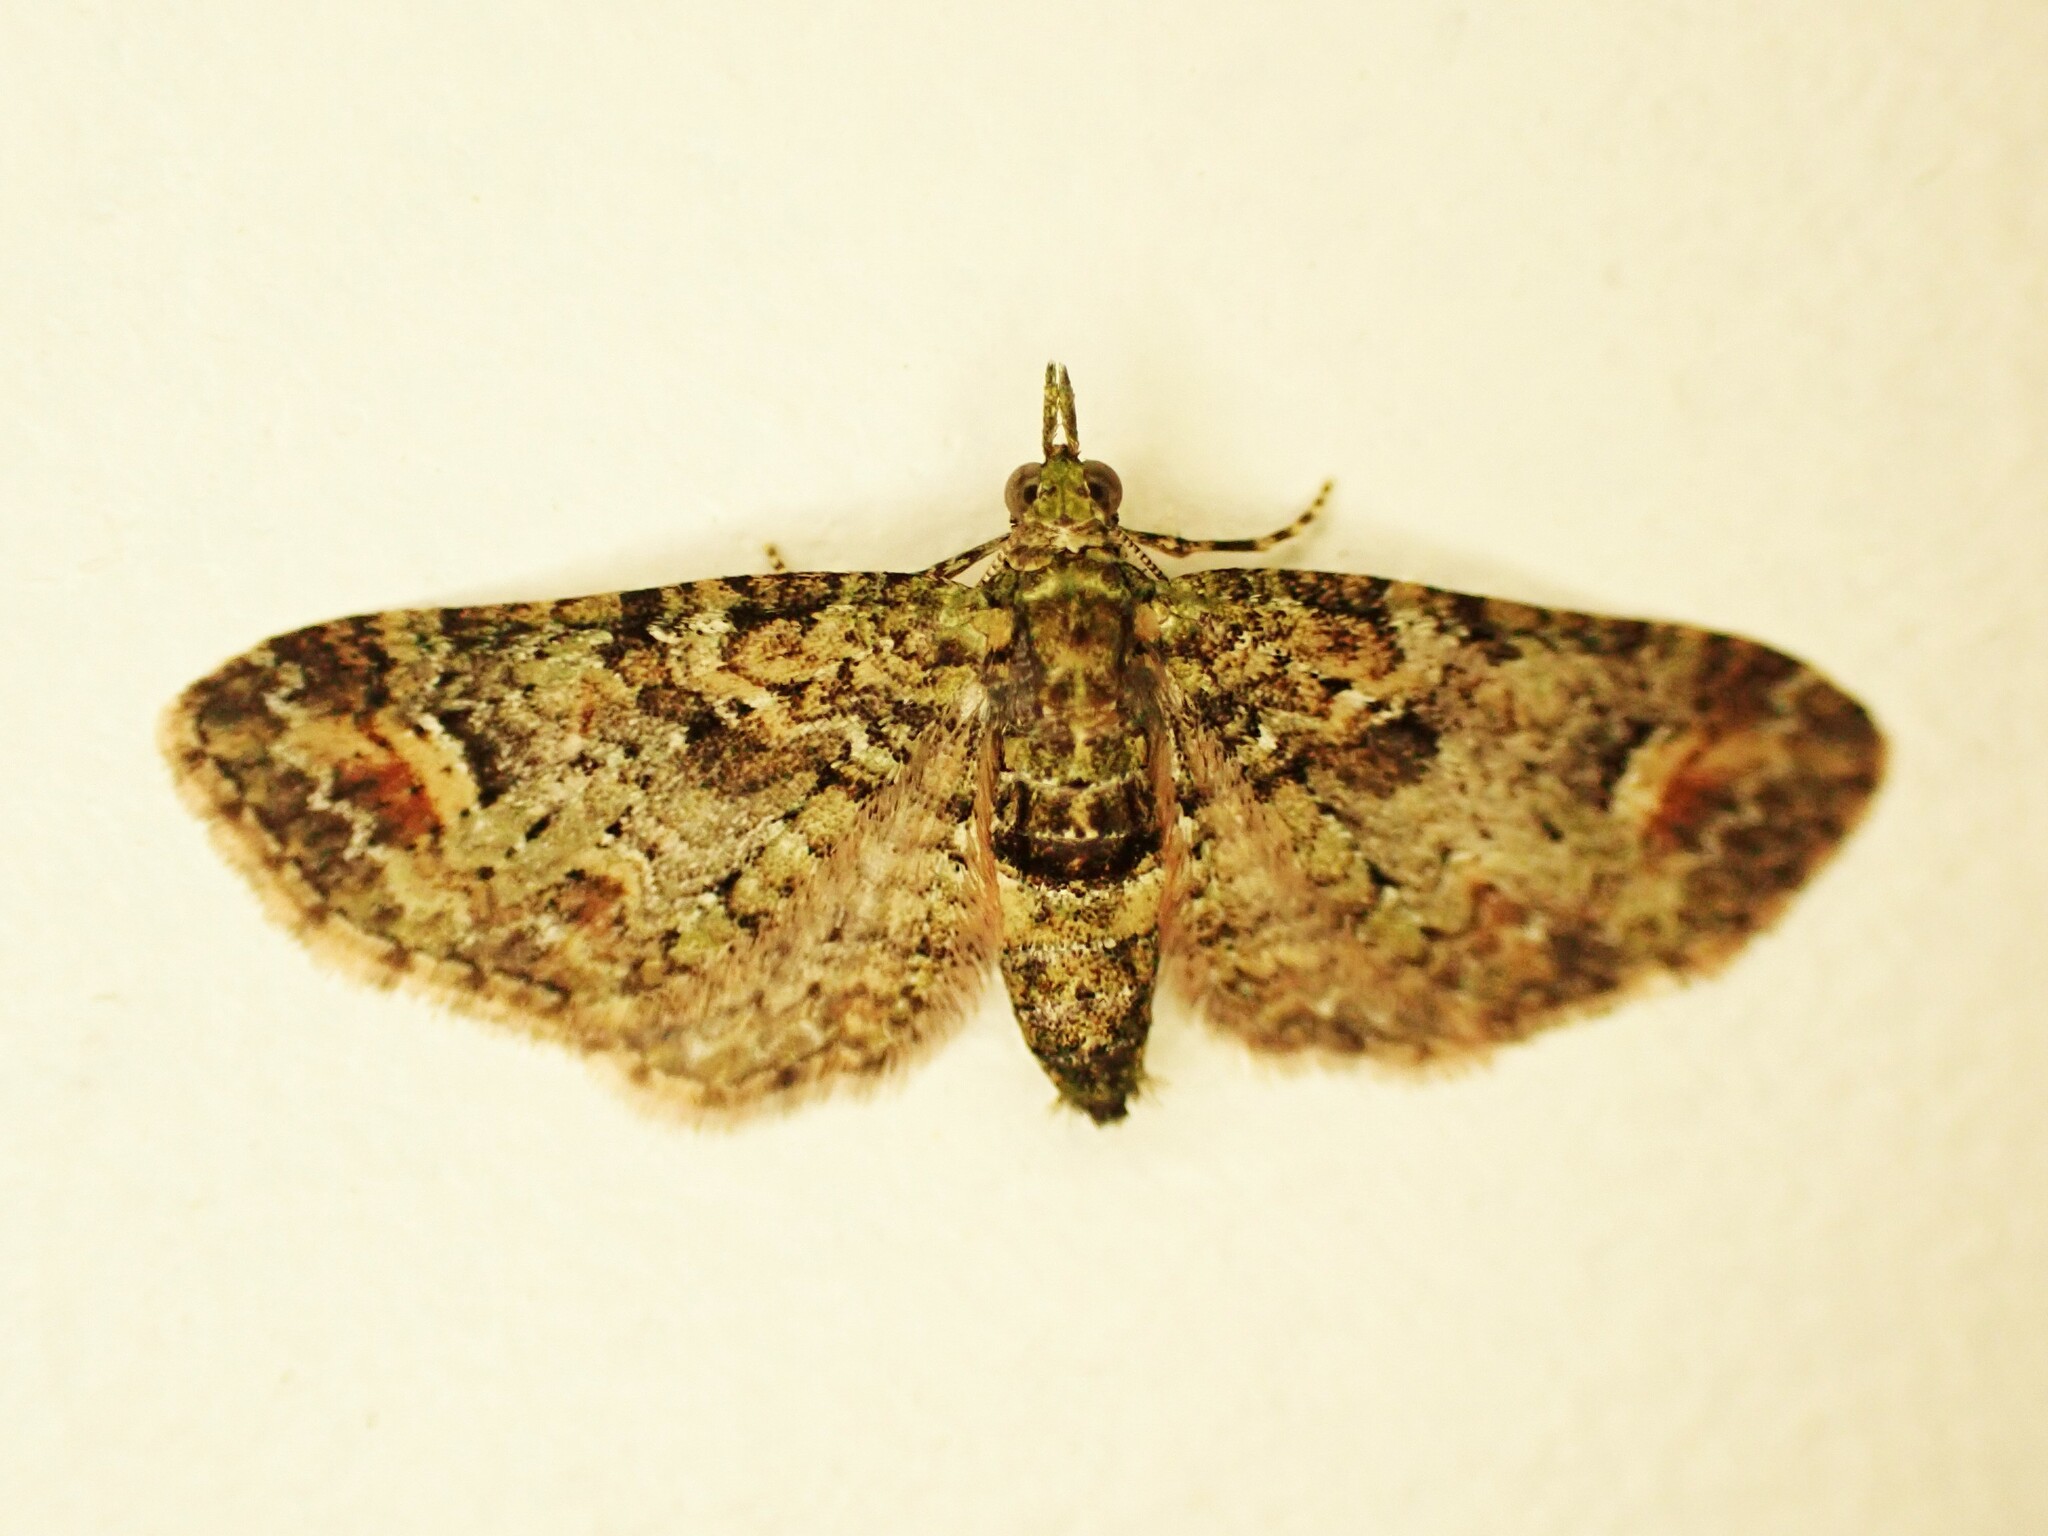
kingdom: Animalia
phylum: Arthropoda
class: Insecta
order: Lepidoptera
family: Geometridae
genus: Idaea
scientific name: Idaea mutanda
